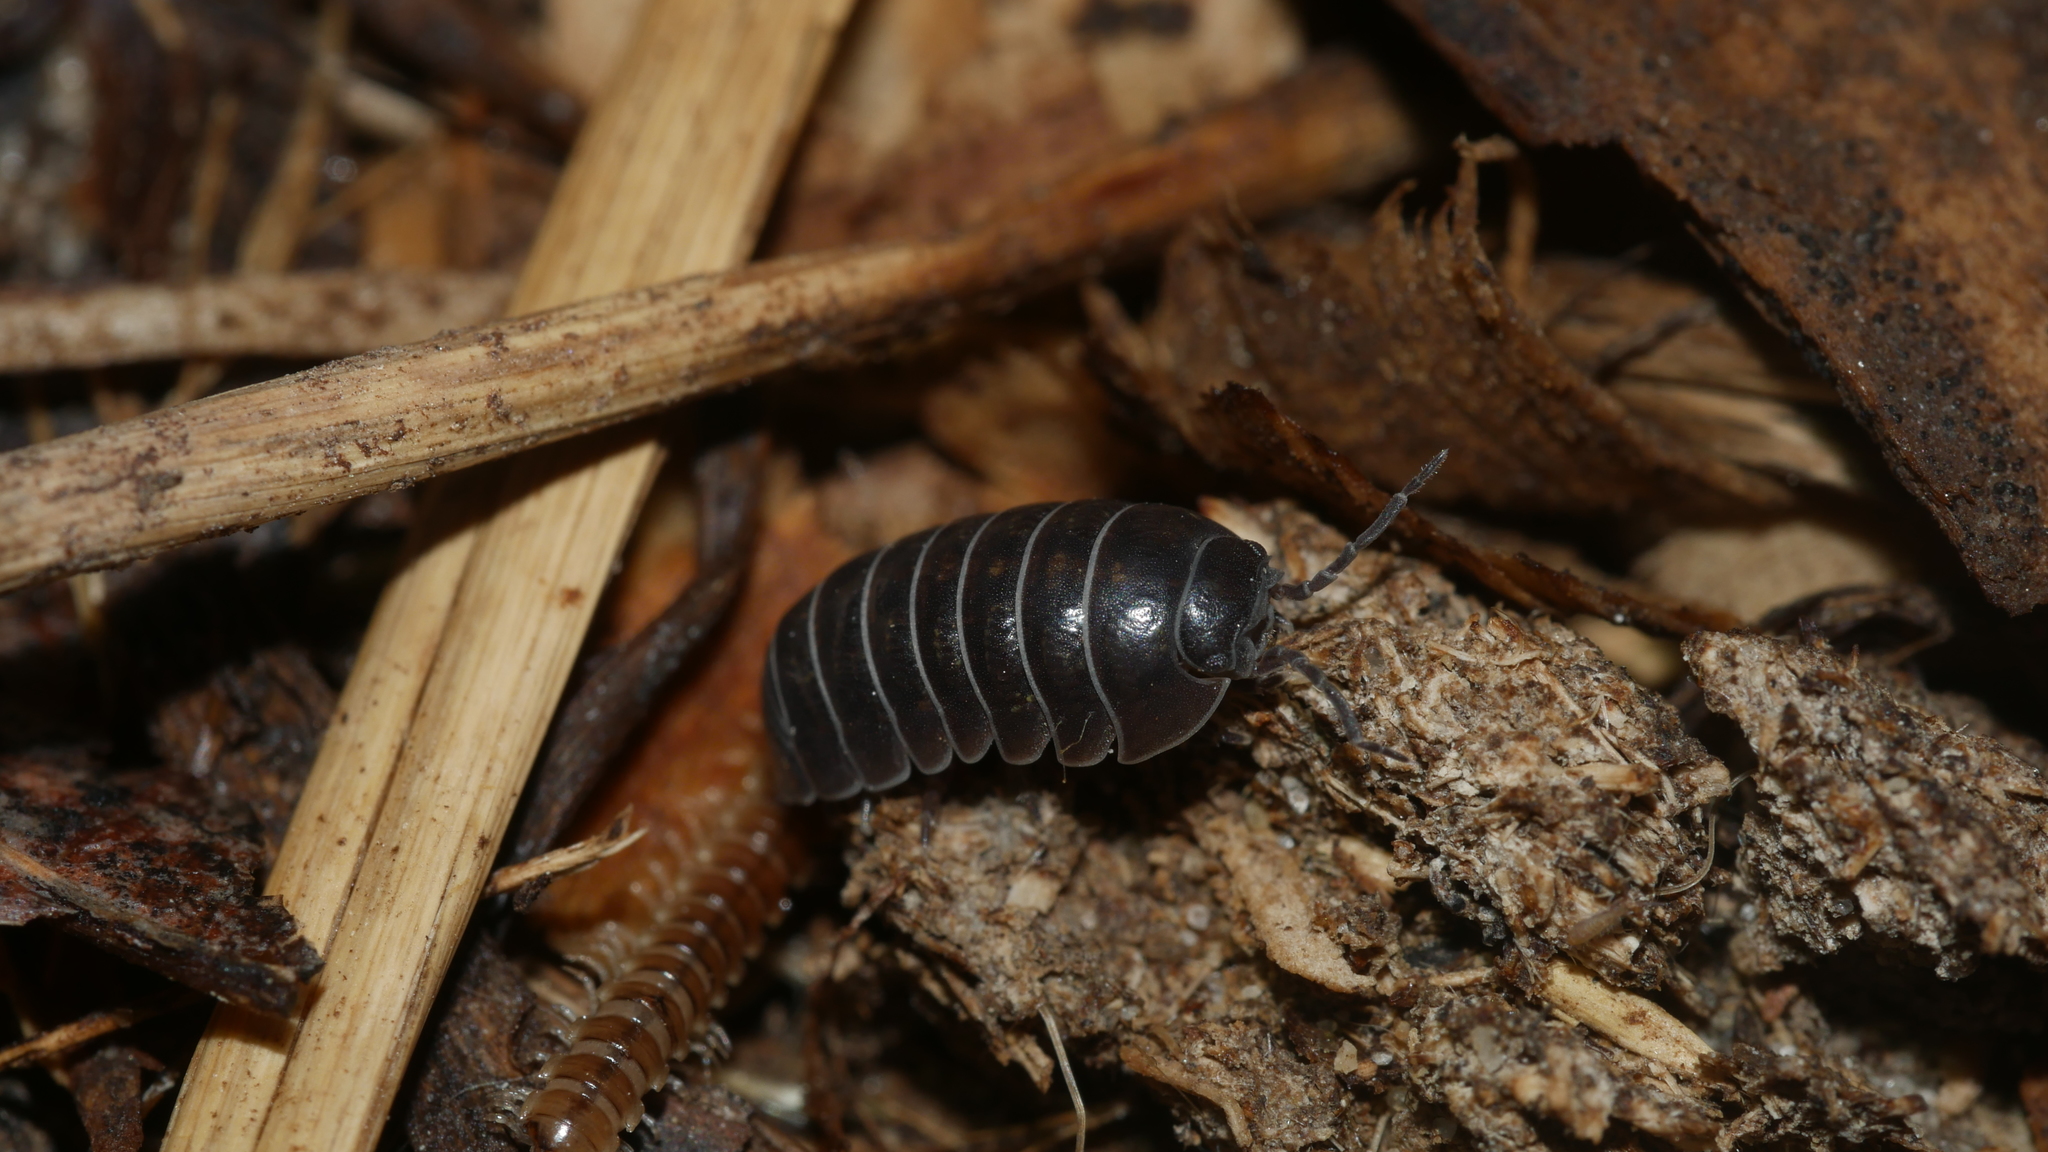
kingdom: Animalia
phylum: Arthropoda
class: Malacostraca
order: Isopoda
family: Armadillidiidae
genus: Armadillidium
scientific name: Armadillidium vulgare
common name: Common pill woodlouse
